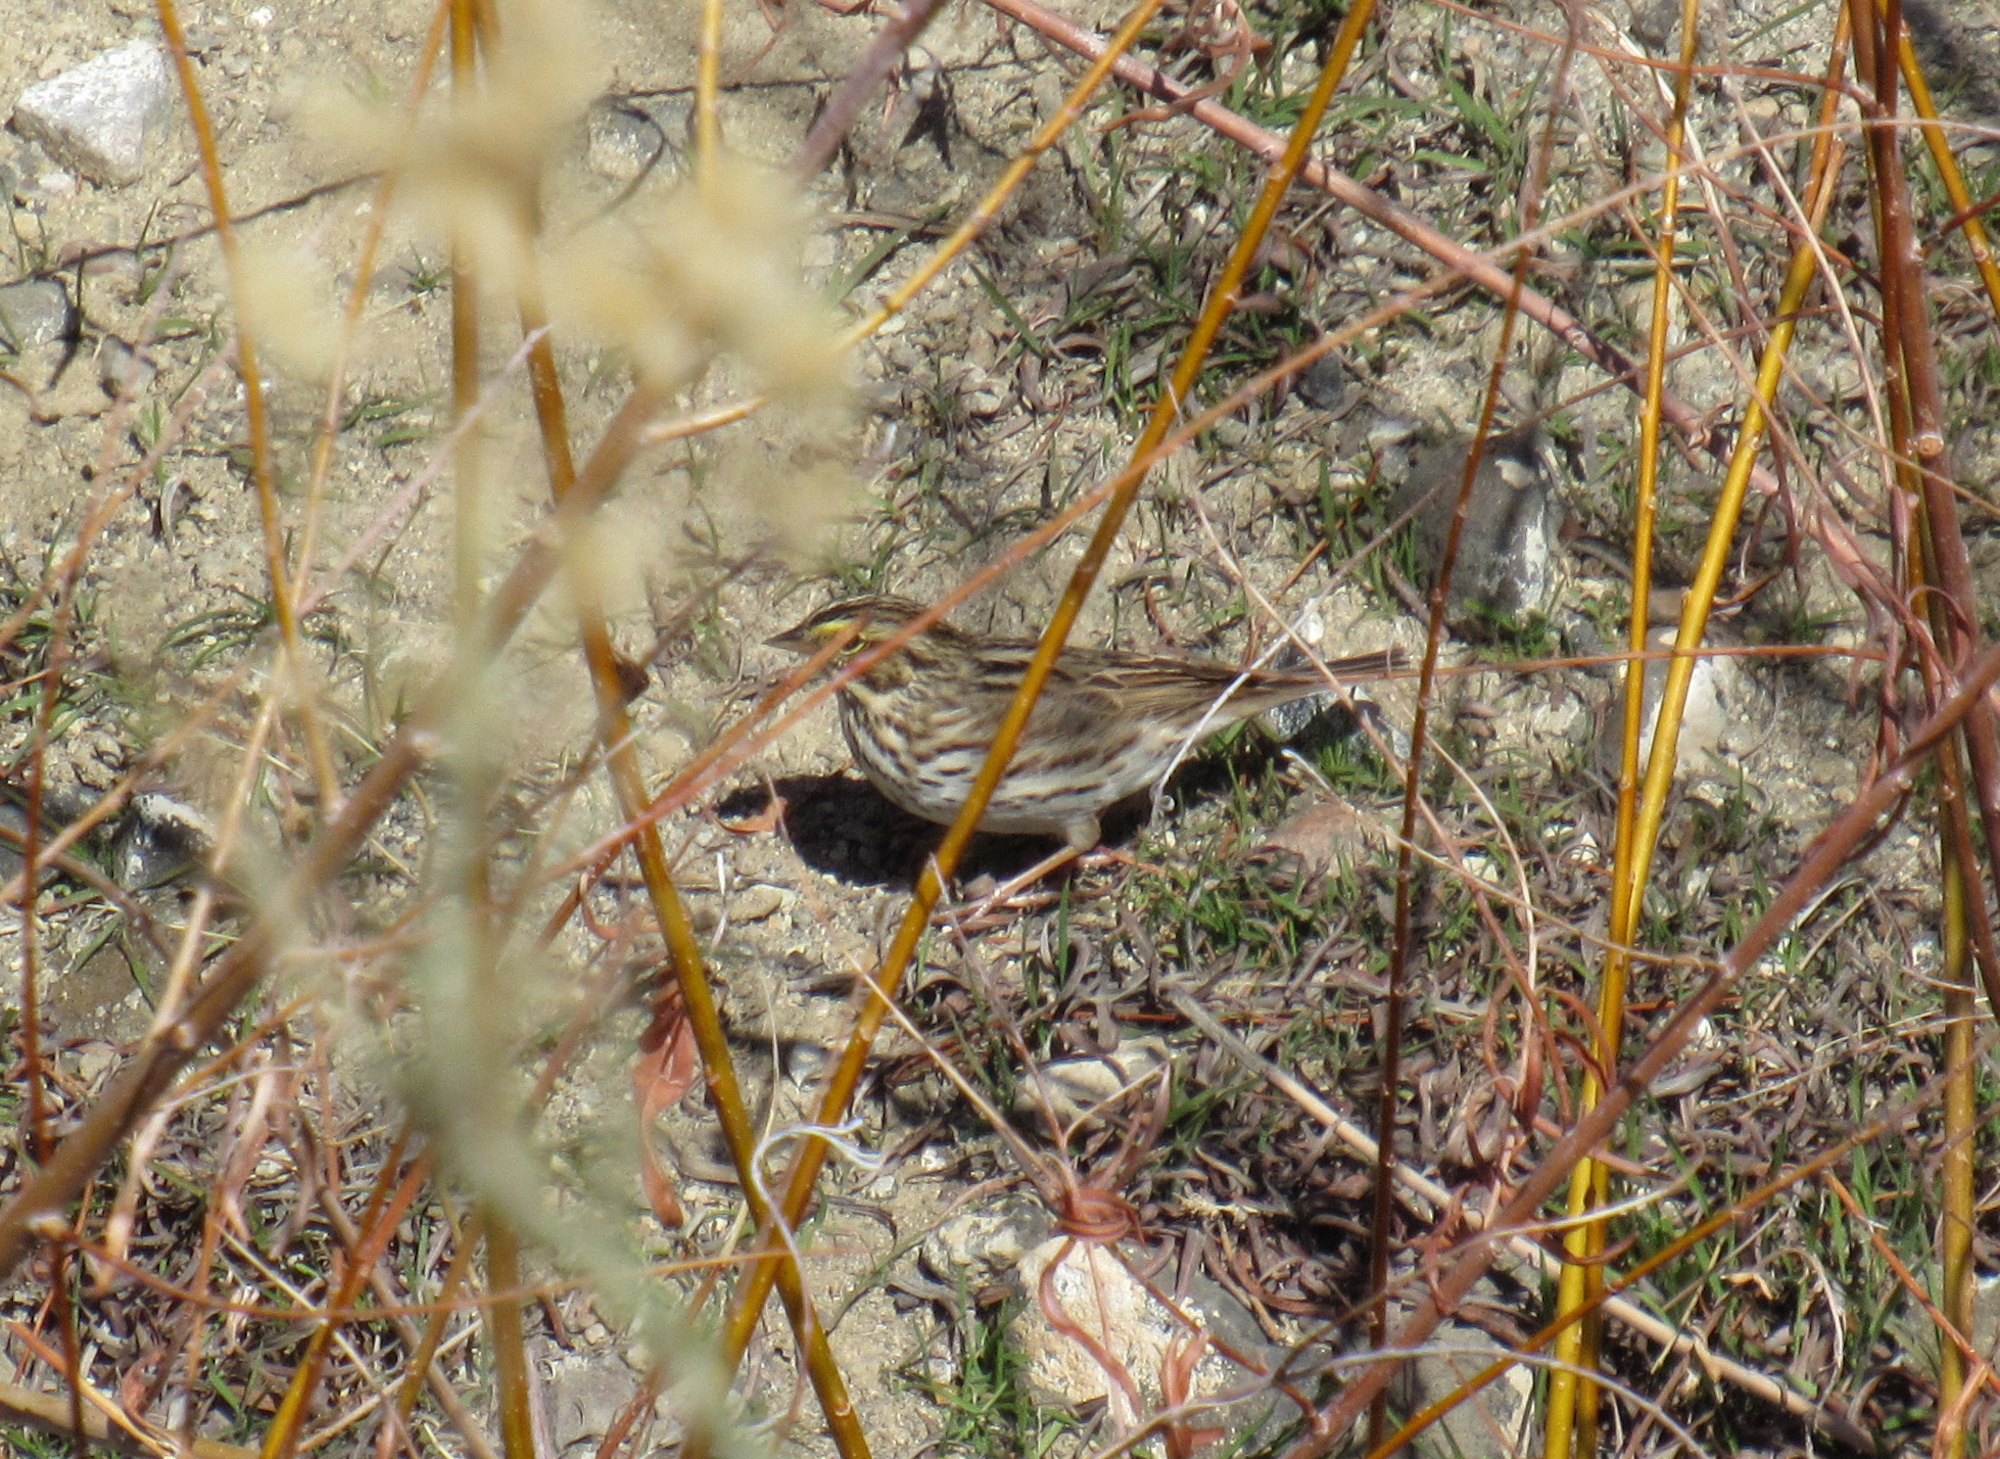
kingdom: Animalia
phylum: Chordata
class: Aves
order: Passeriformes
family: Passerellidae
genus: Passerculus
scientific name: Passerculus sandwichensis
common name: Savannah sparrow
